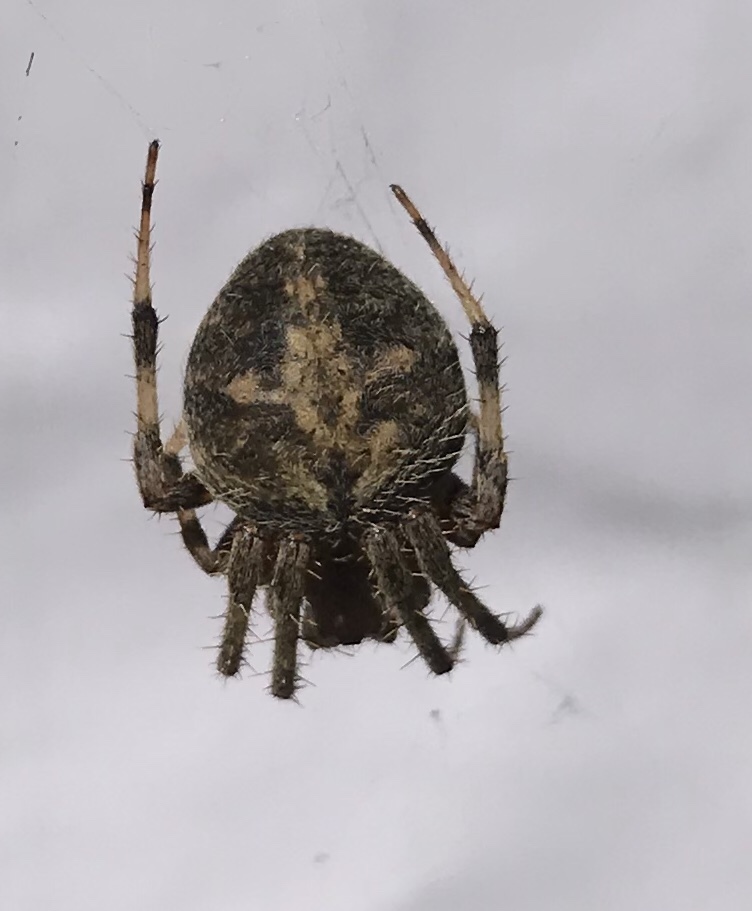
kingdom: Animalia
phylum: Arthropoda
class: Arachnida
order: Araneae
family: Araneidae
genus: Neoscona
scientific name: Neoscona crucifera
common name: Spotted orbweaver
